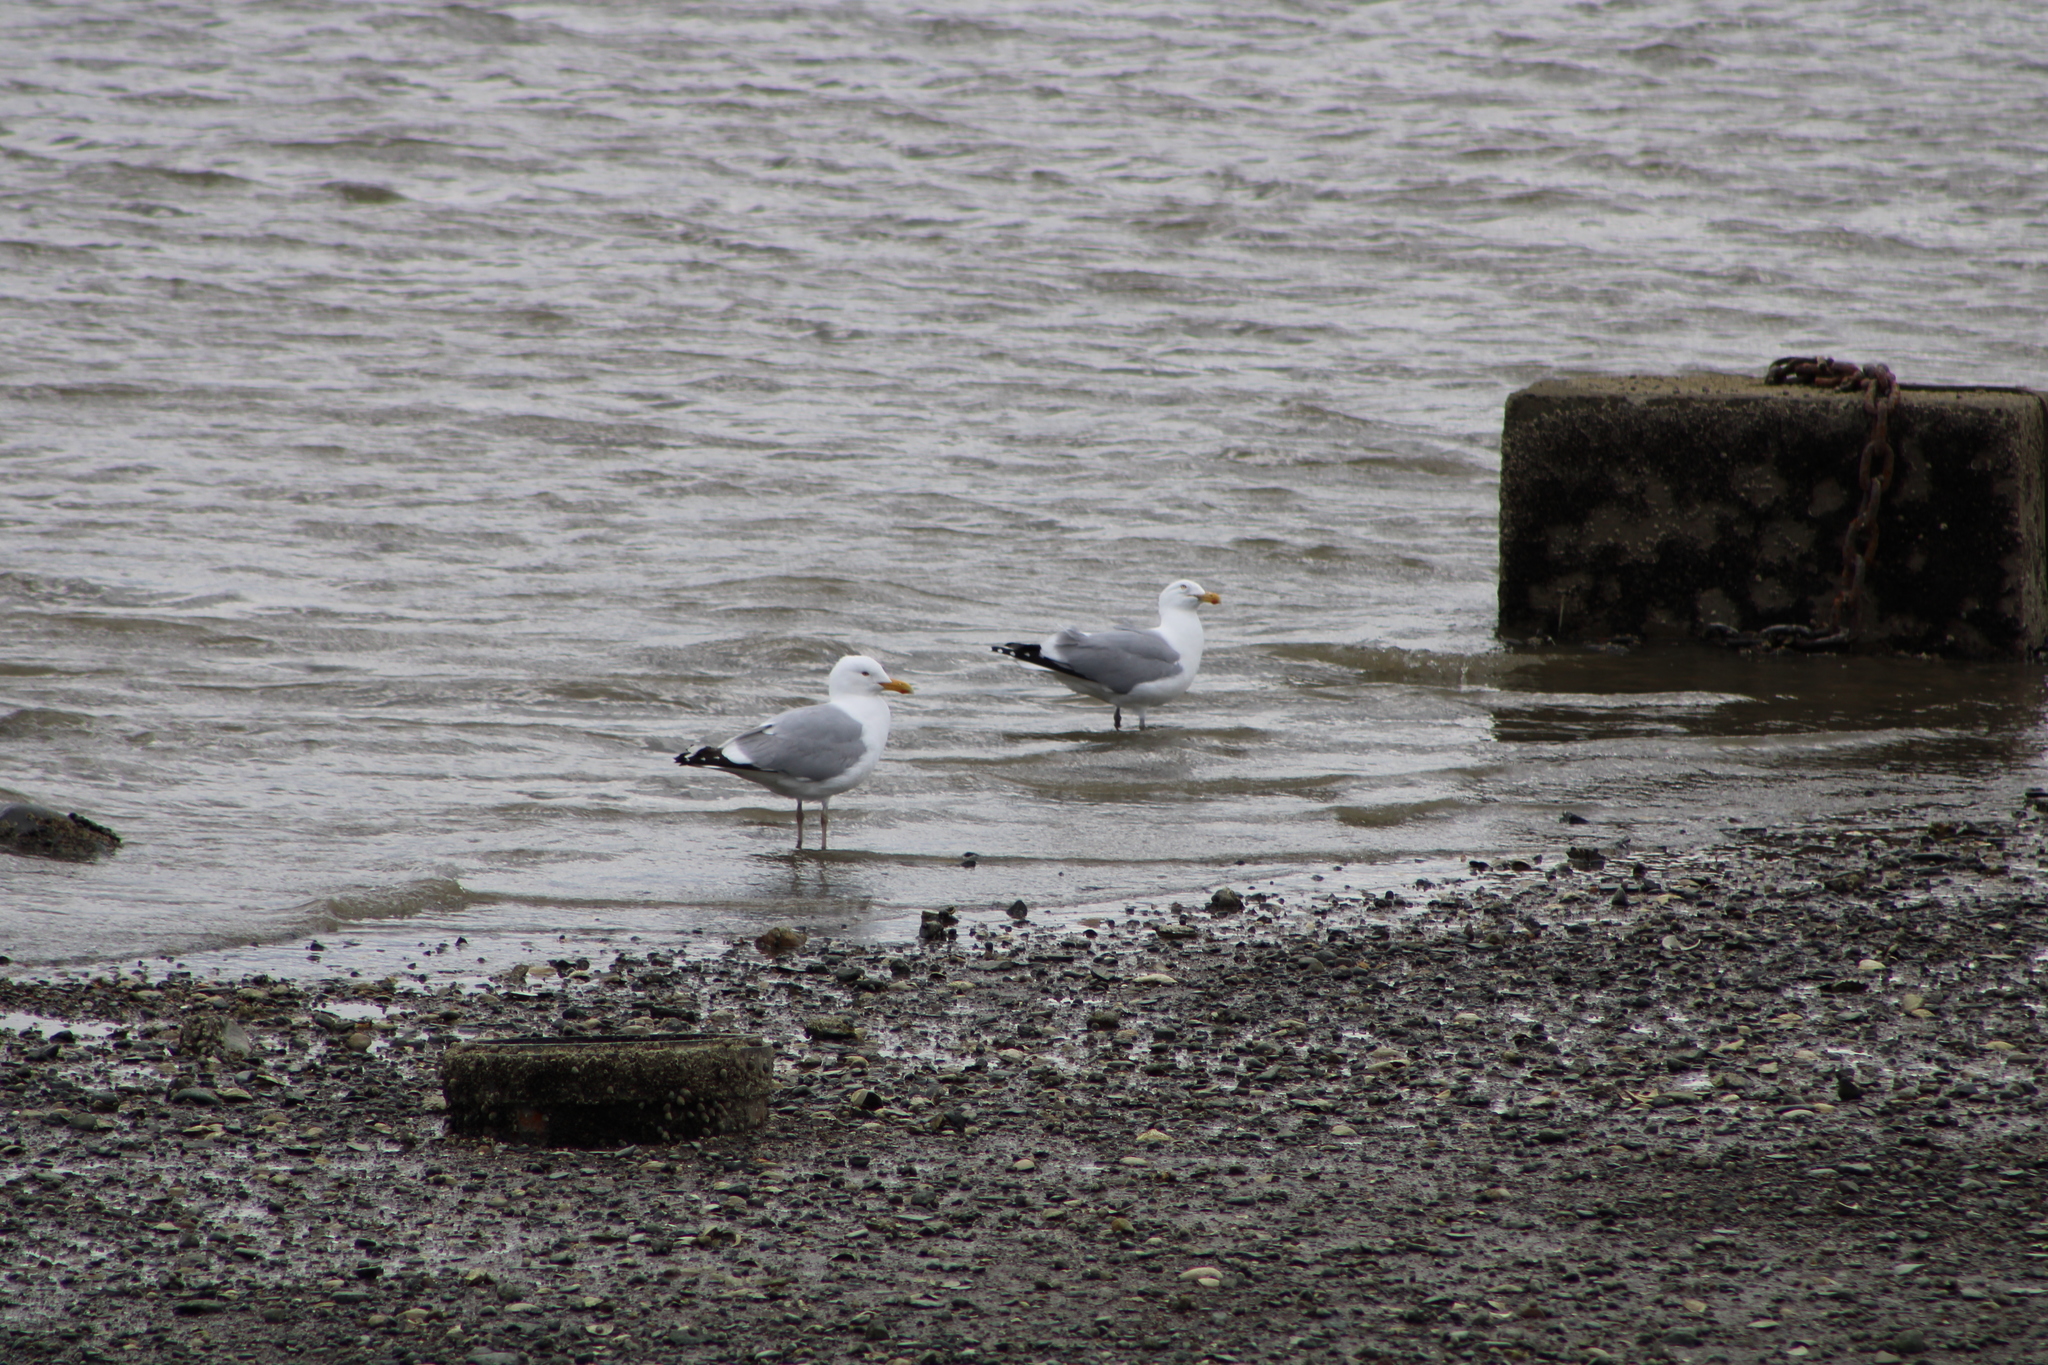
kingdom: Animalia
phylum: Chordata
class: Aves
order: Charadriiformes
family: Laridae
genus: Larus
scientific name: Larus argentatus
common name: Herring gull
